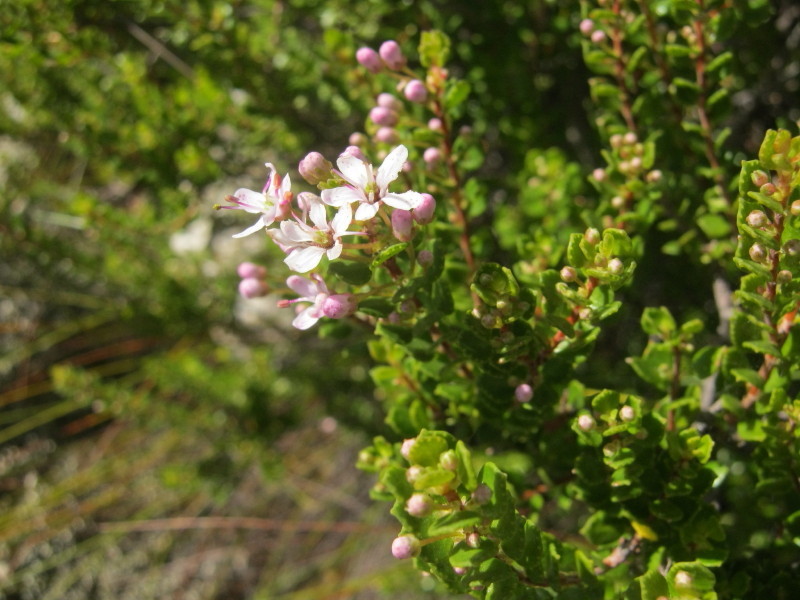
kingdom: Plantae
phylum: Tracheophyta
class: Magnoliopsida
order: Sapindales
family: Rutaceae
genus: Agathosma
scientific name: Agathosma ovata
